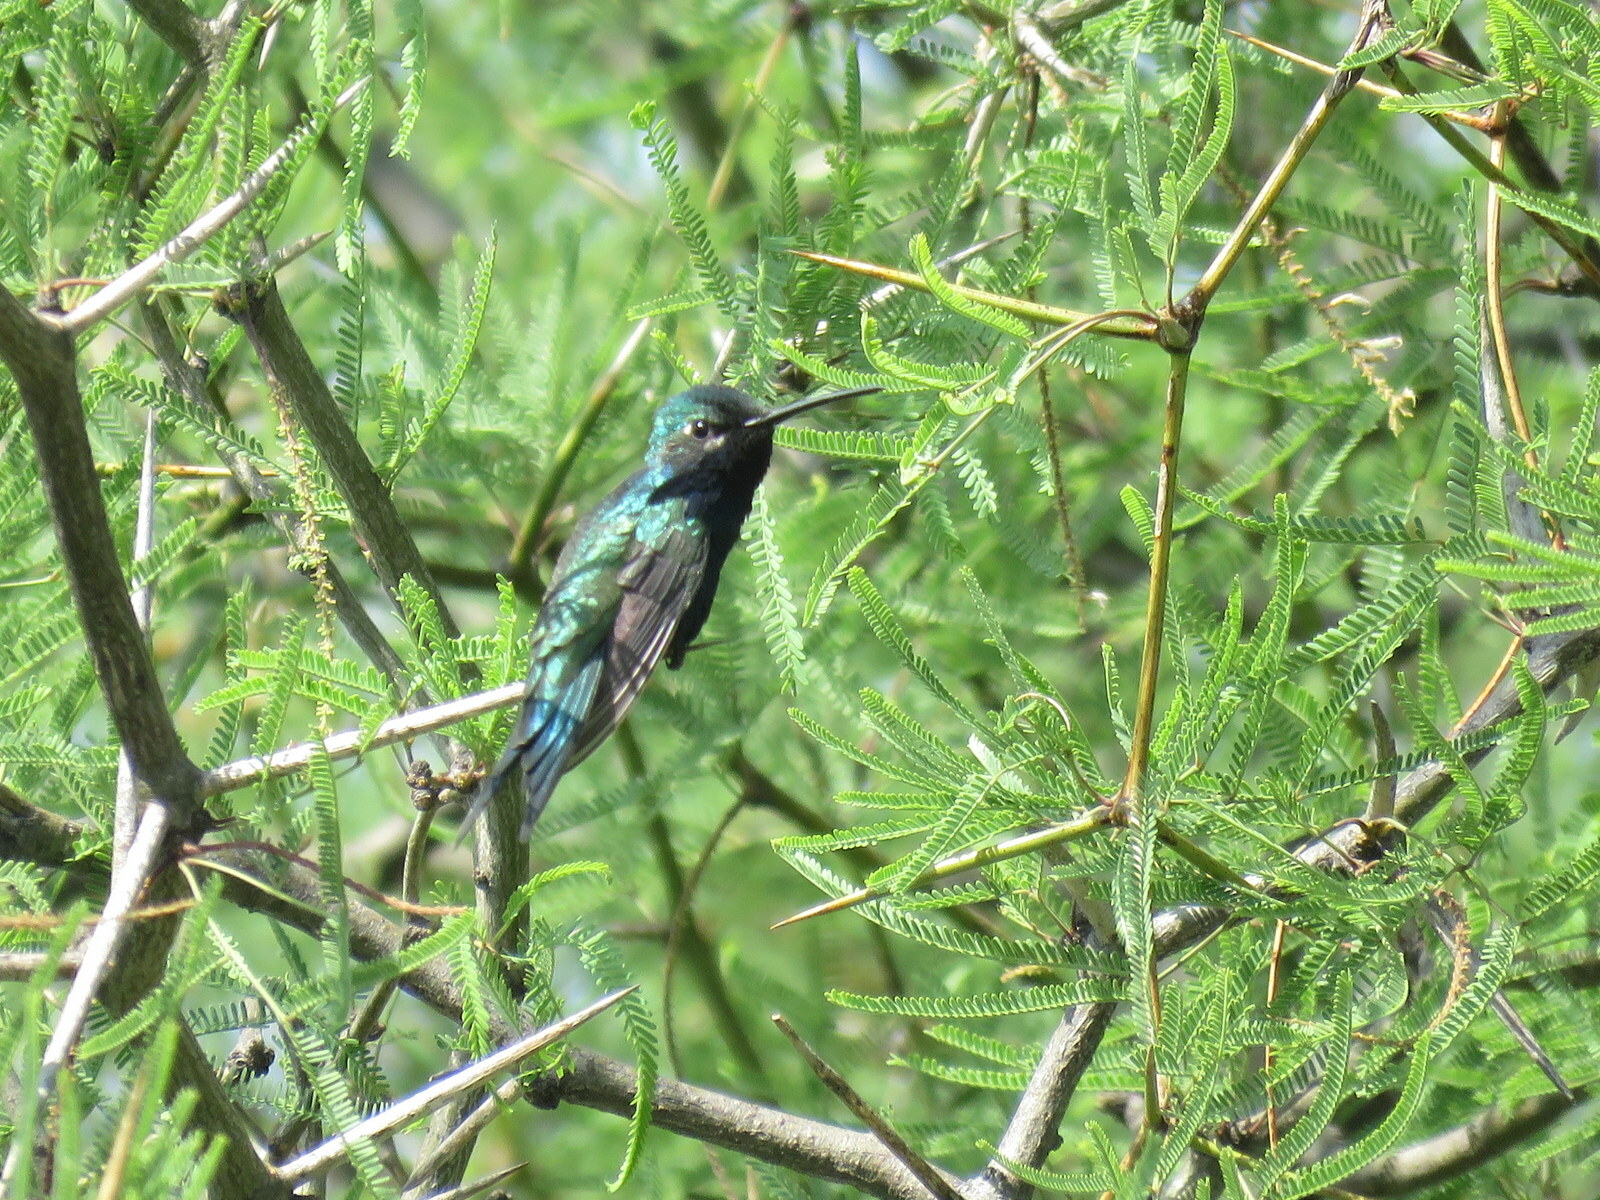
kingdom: Animalia
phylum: Chordata
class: Aves
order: Apodiformes
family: Trochilidae
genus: Heliomaster
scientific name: Heliomaster furcifer
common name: Blue-tufted starthroat
